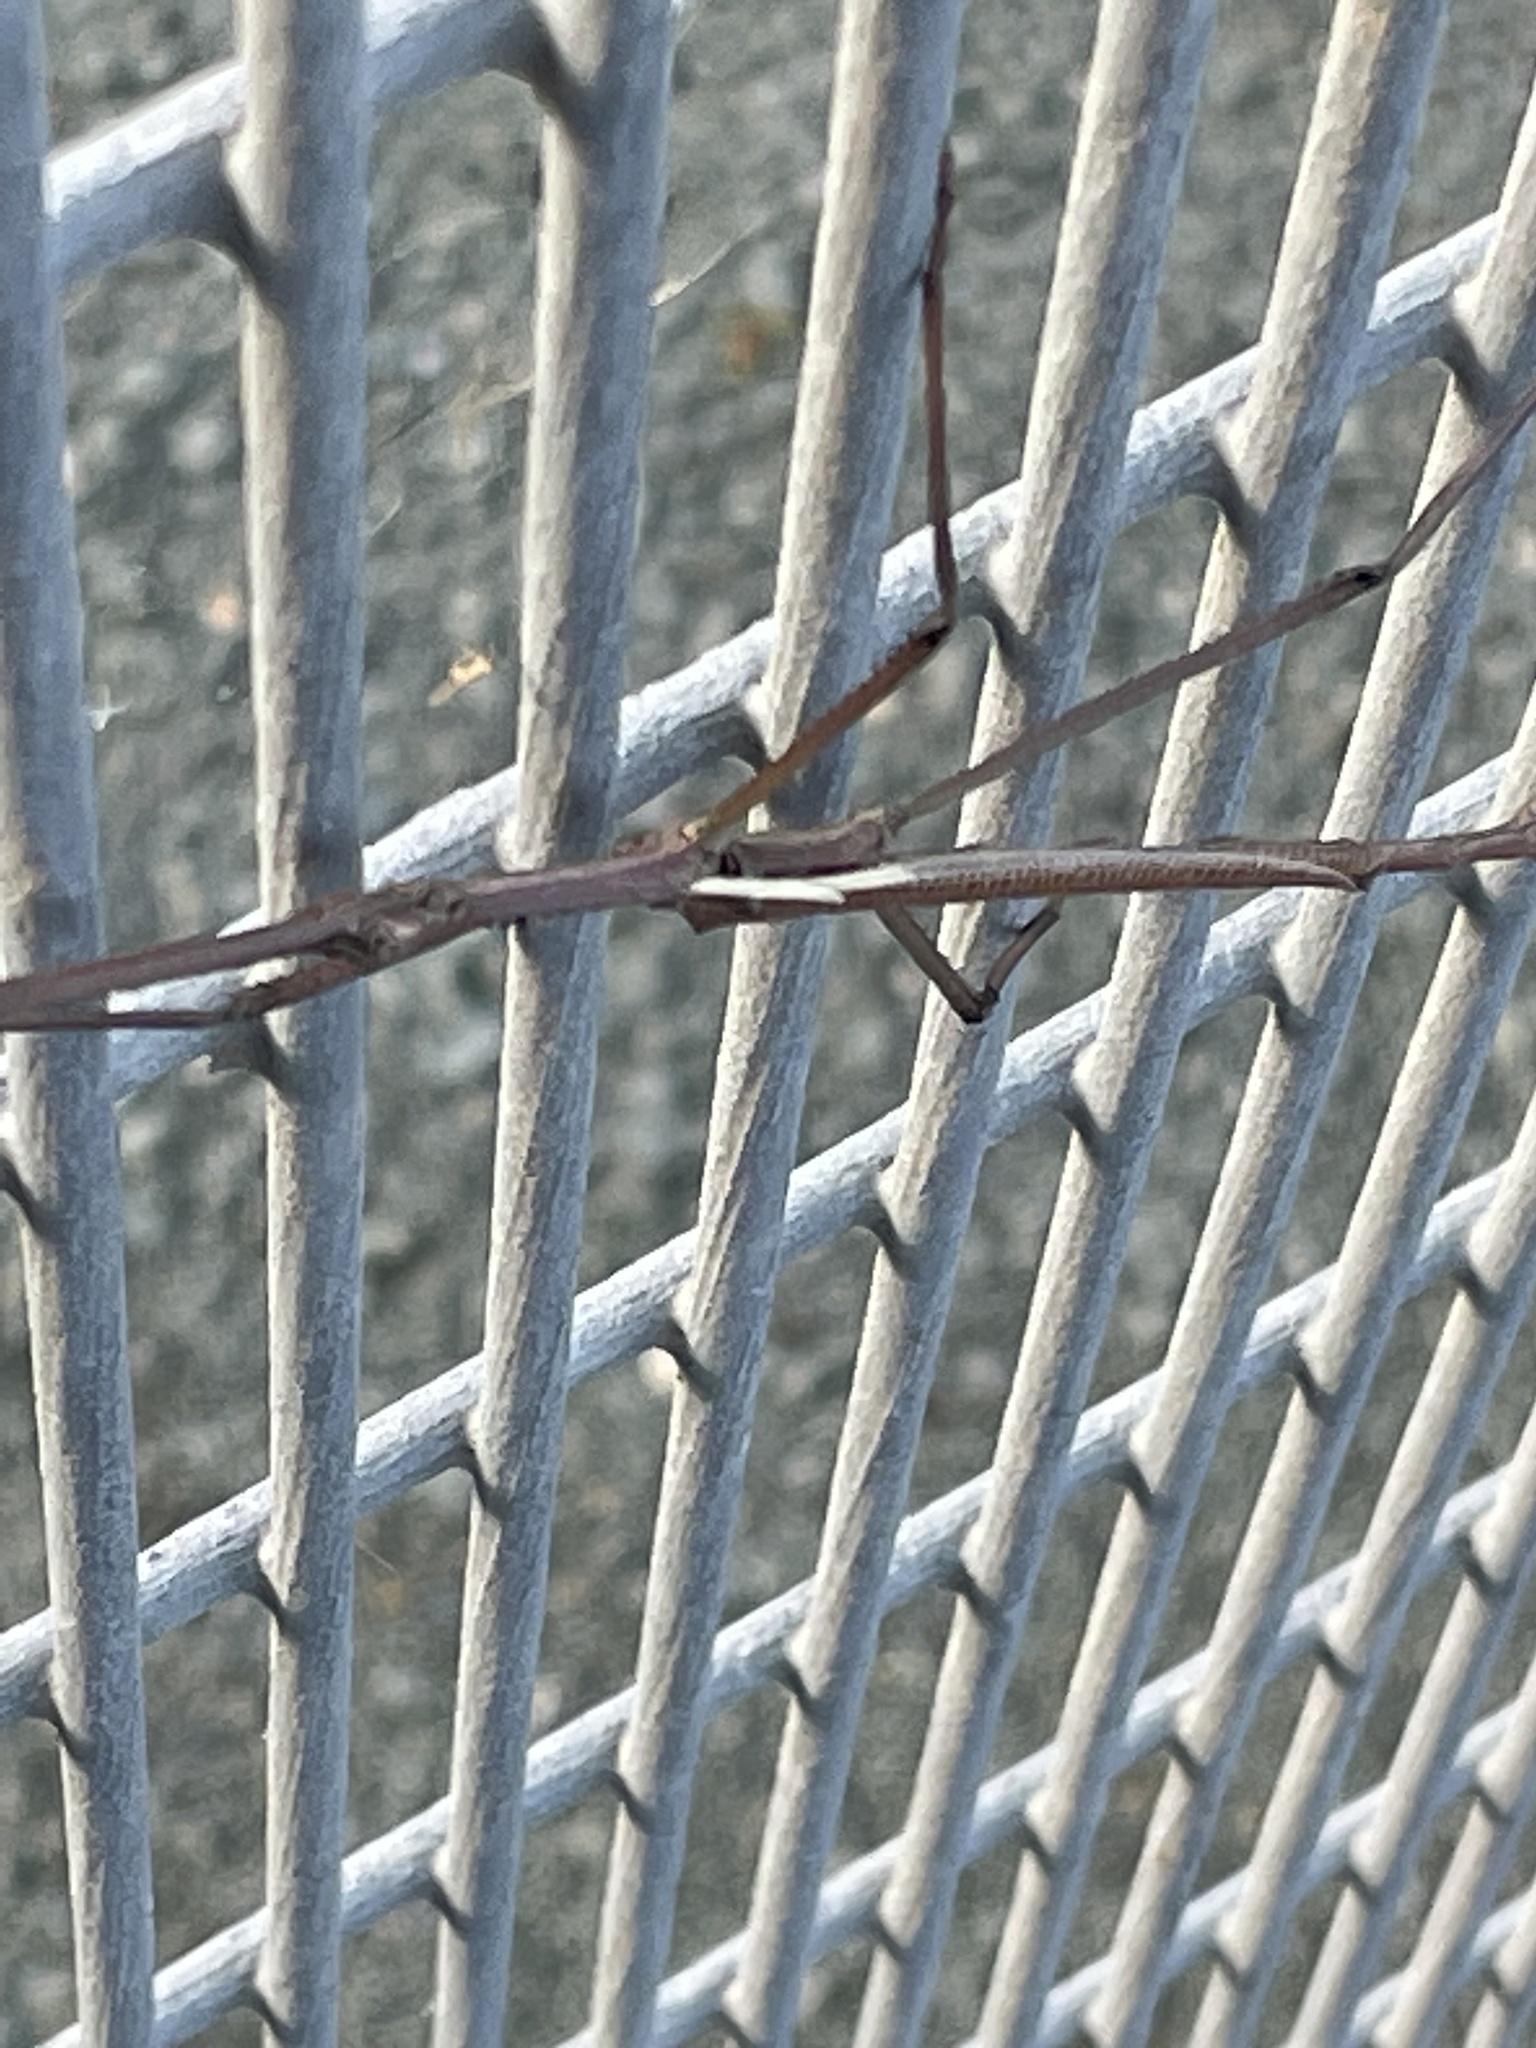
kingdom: Animalia
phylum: Arthropoda
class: Insecta
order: Phasmida
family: Phasmatidae
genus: Anchiale
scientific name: Anchiale austrotessulata
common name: Tessellated stick-insect
